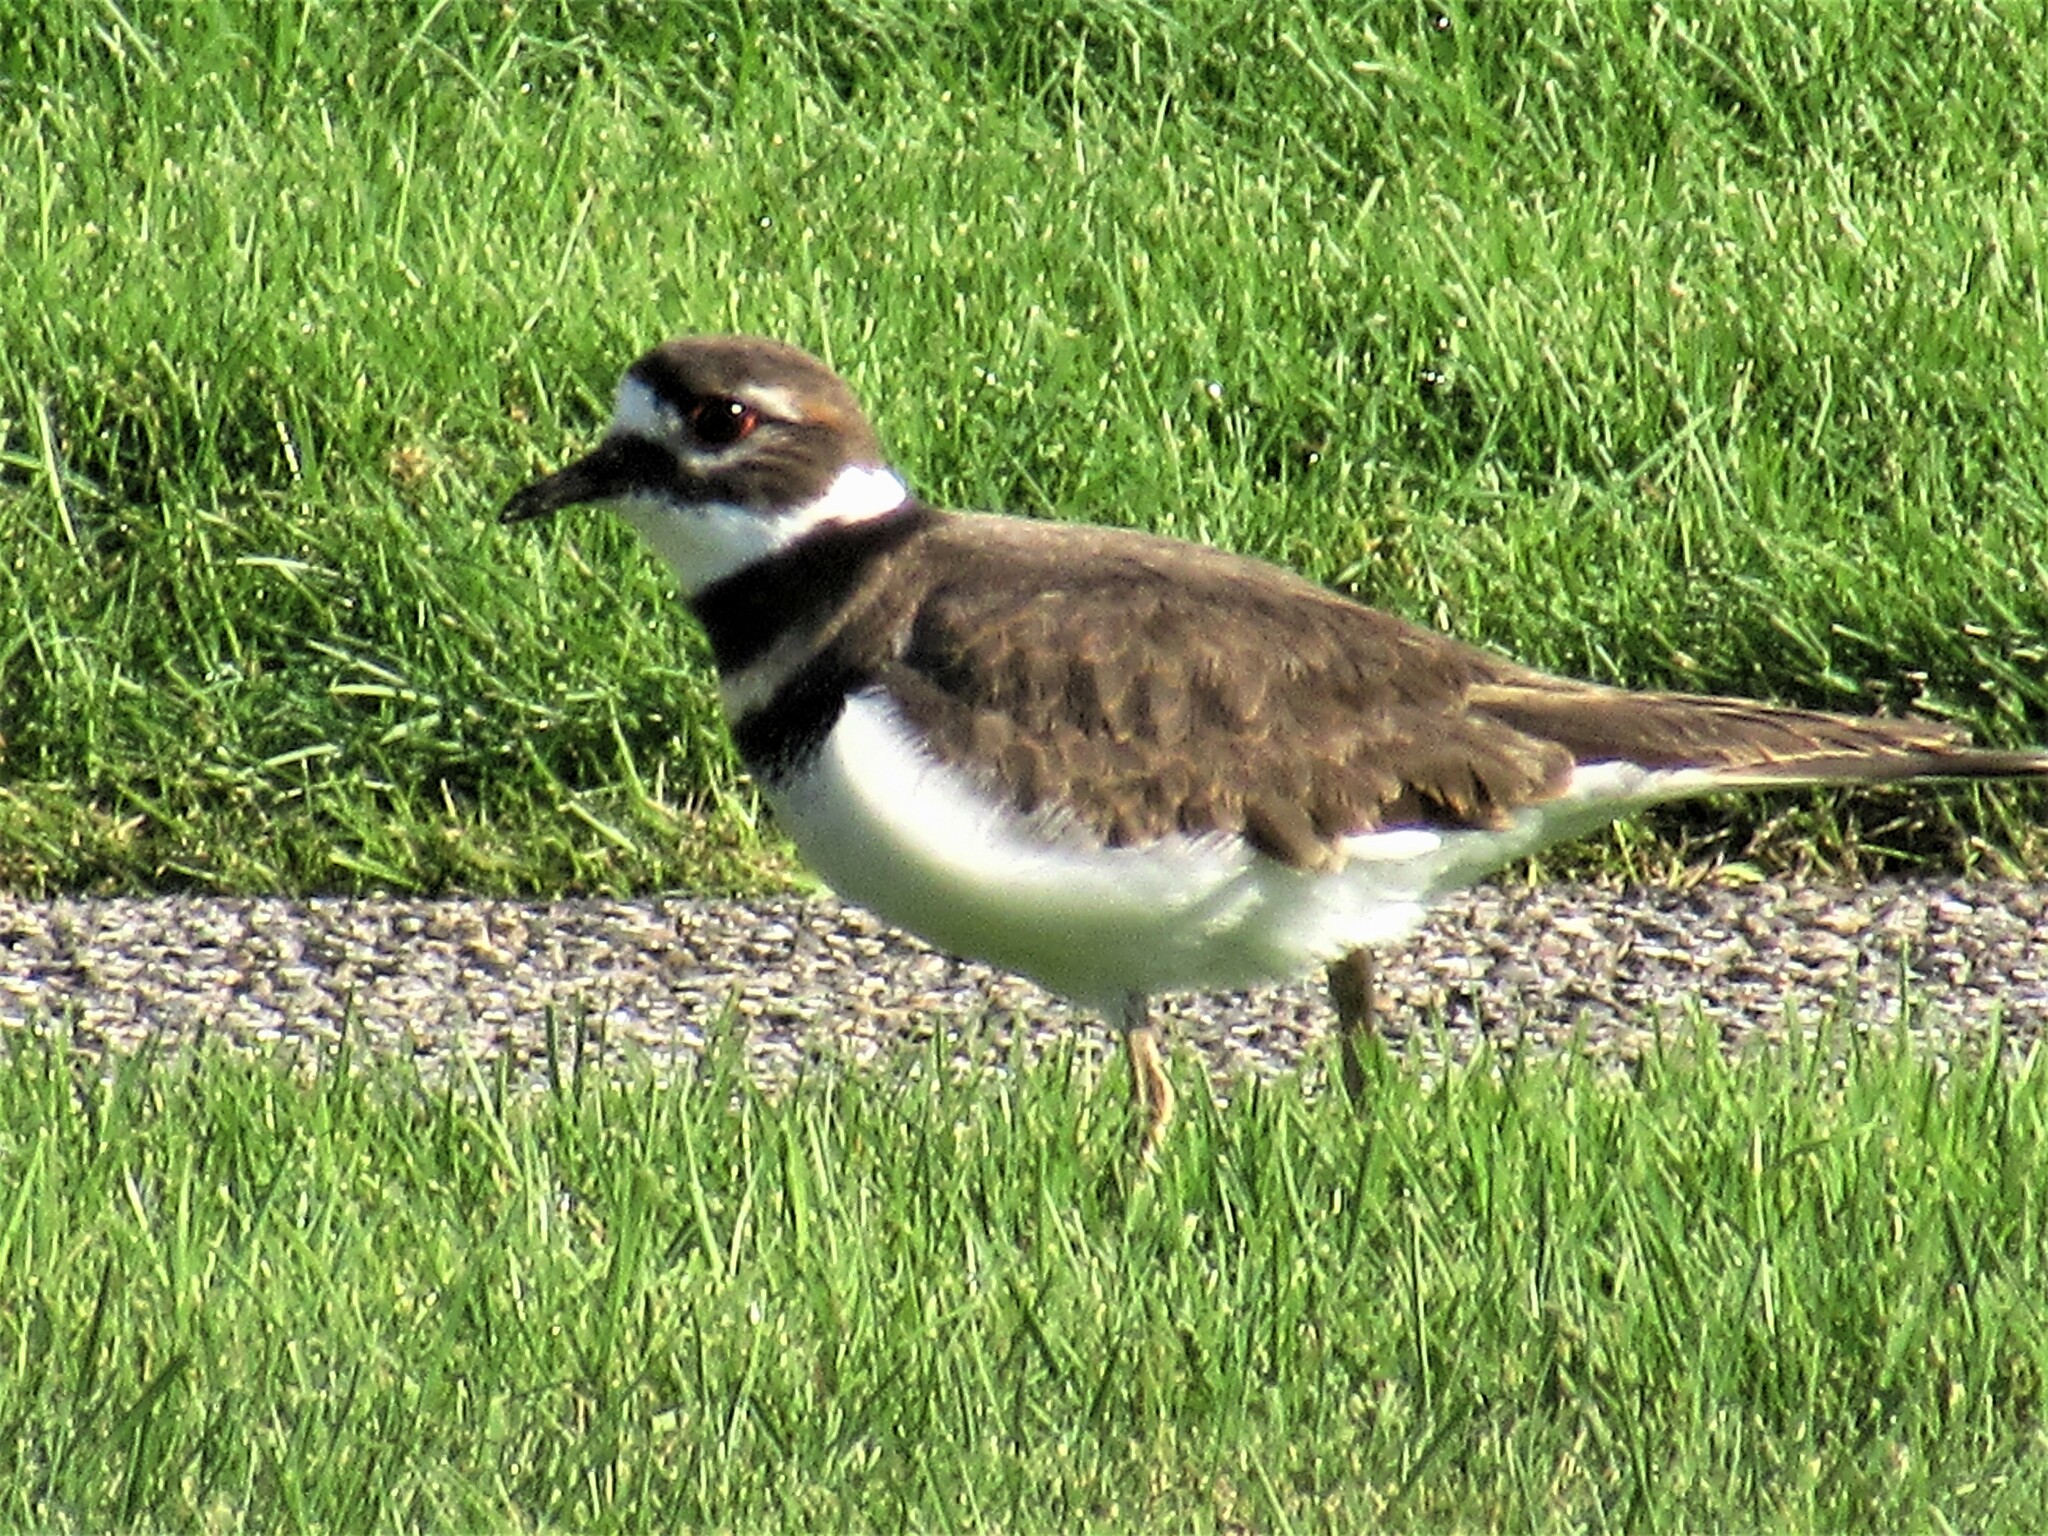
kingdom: Animalia
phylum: Chordata
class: Aves
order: Charadriiformes
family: Charadriidae
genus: Charadrius
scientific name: Charadrius vociferus
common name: Killdeer
